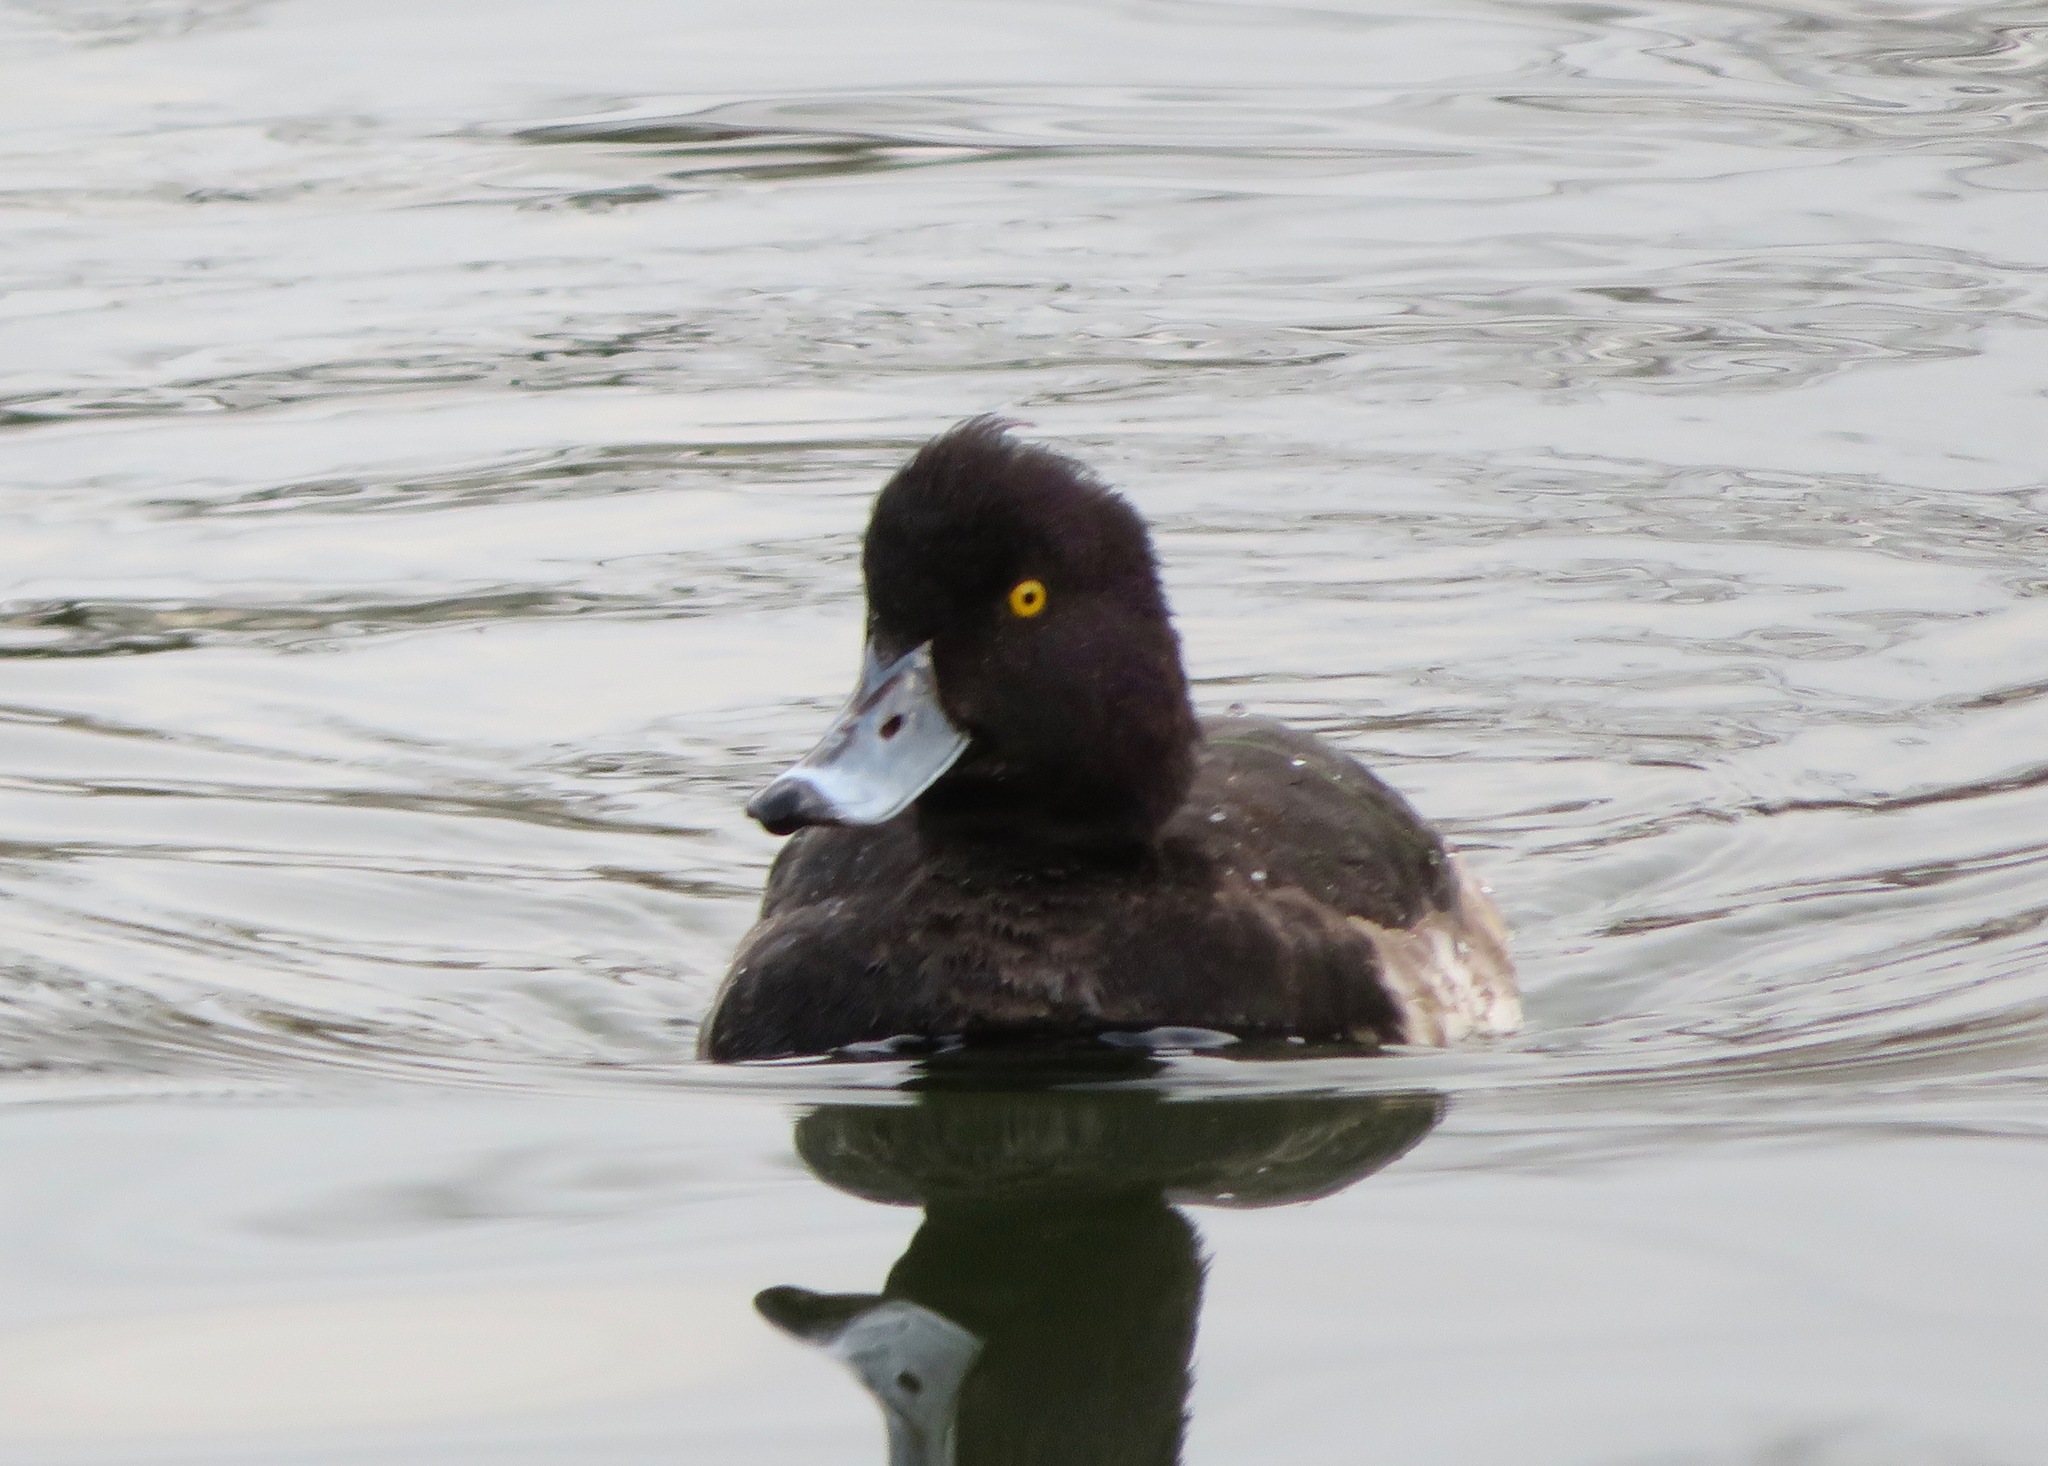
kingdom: Animalia
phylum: Chordata
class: Aves
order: Anseriformes
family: Anatidae
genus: Aythya
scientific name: Aythya fuligula
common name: Tufted duck
